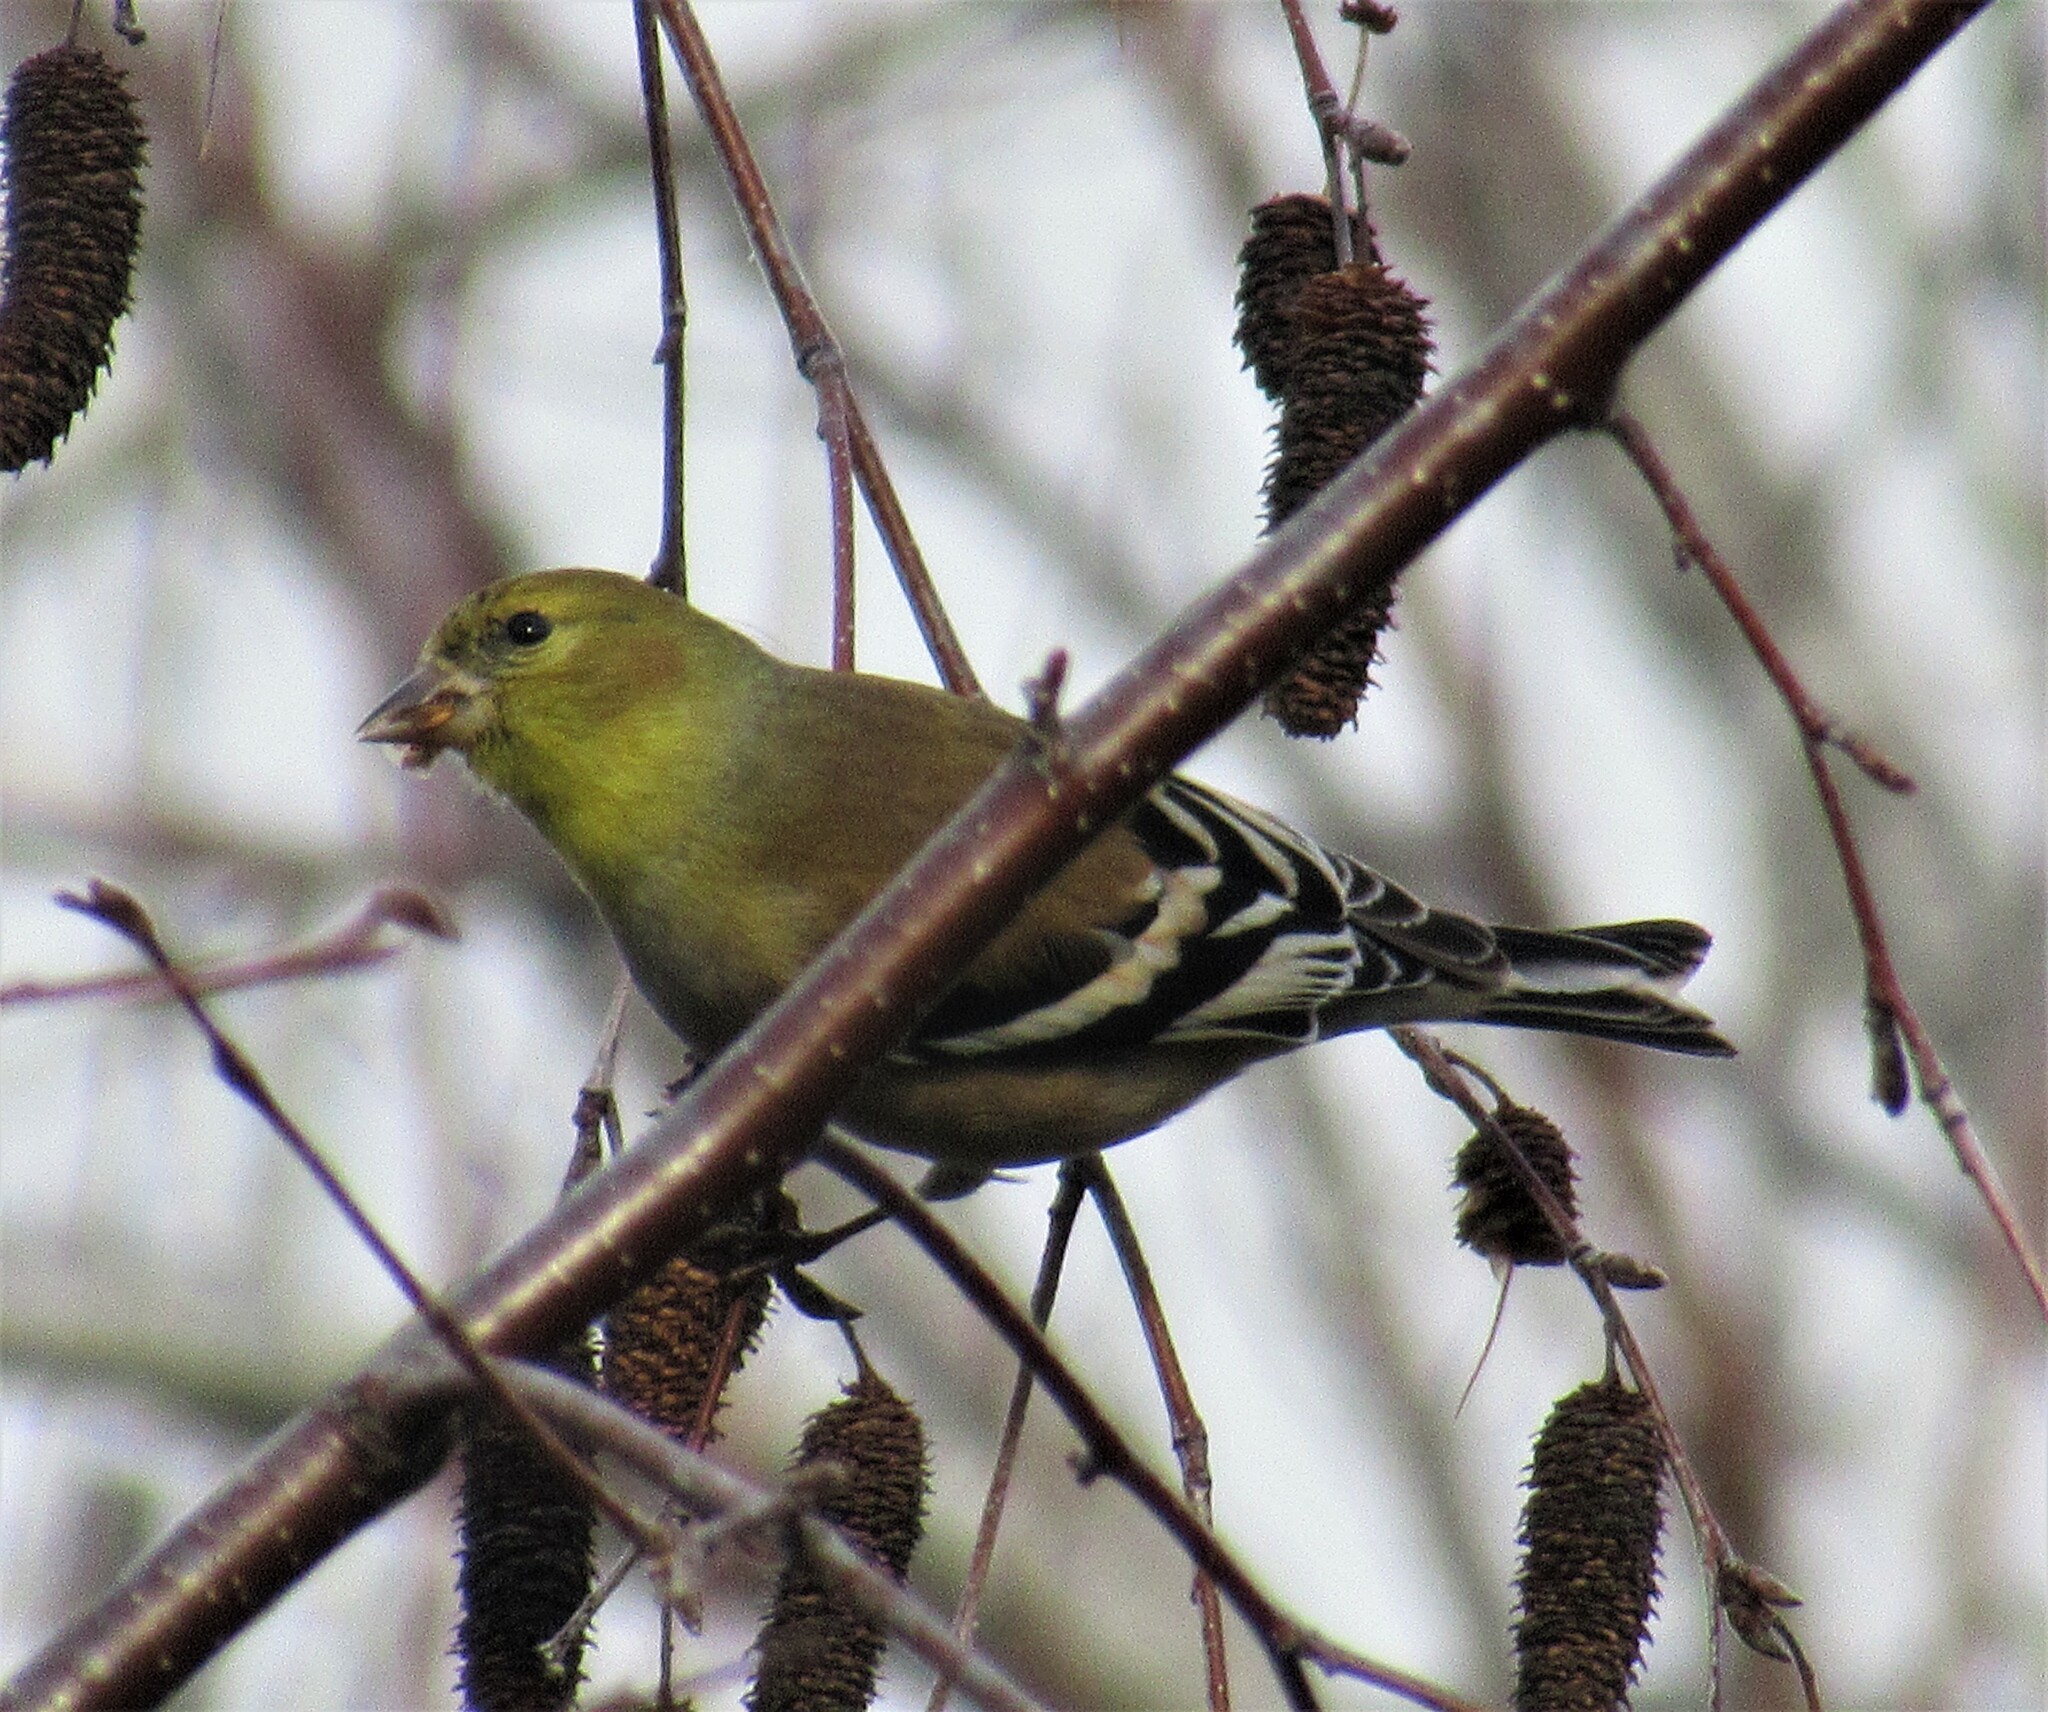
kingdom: Animalia
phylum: Chordata
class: Aves
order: Passeriformes
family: Fringillidae
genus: Spinus
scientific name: Spinus tristis
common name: American goldfinch
